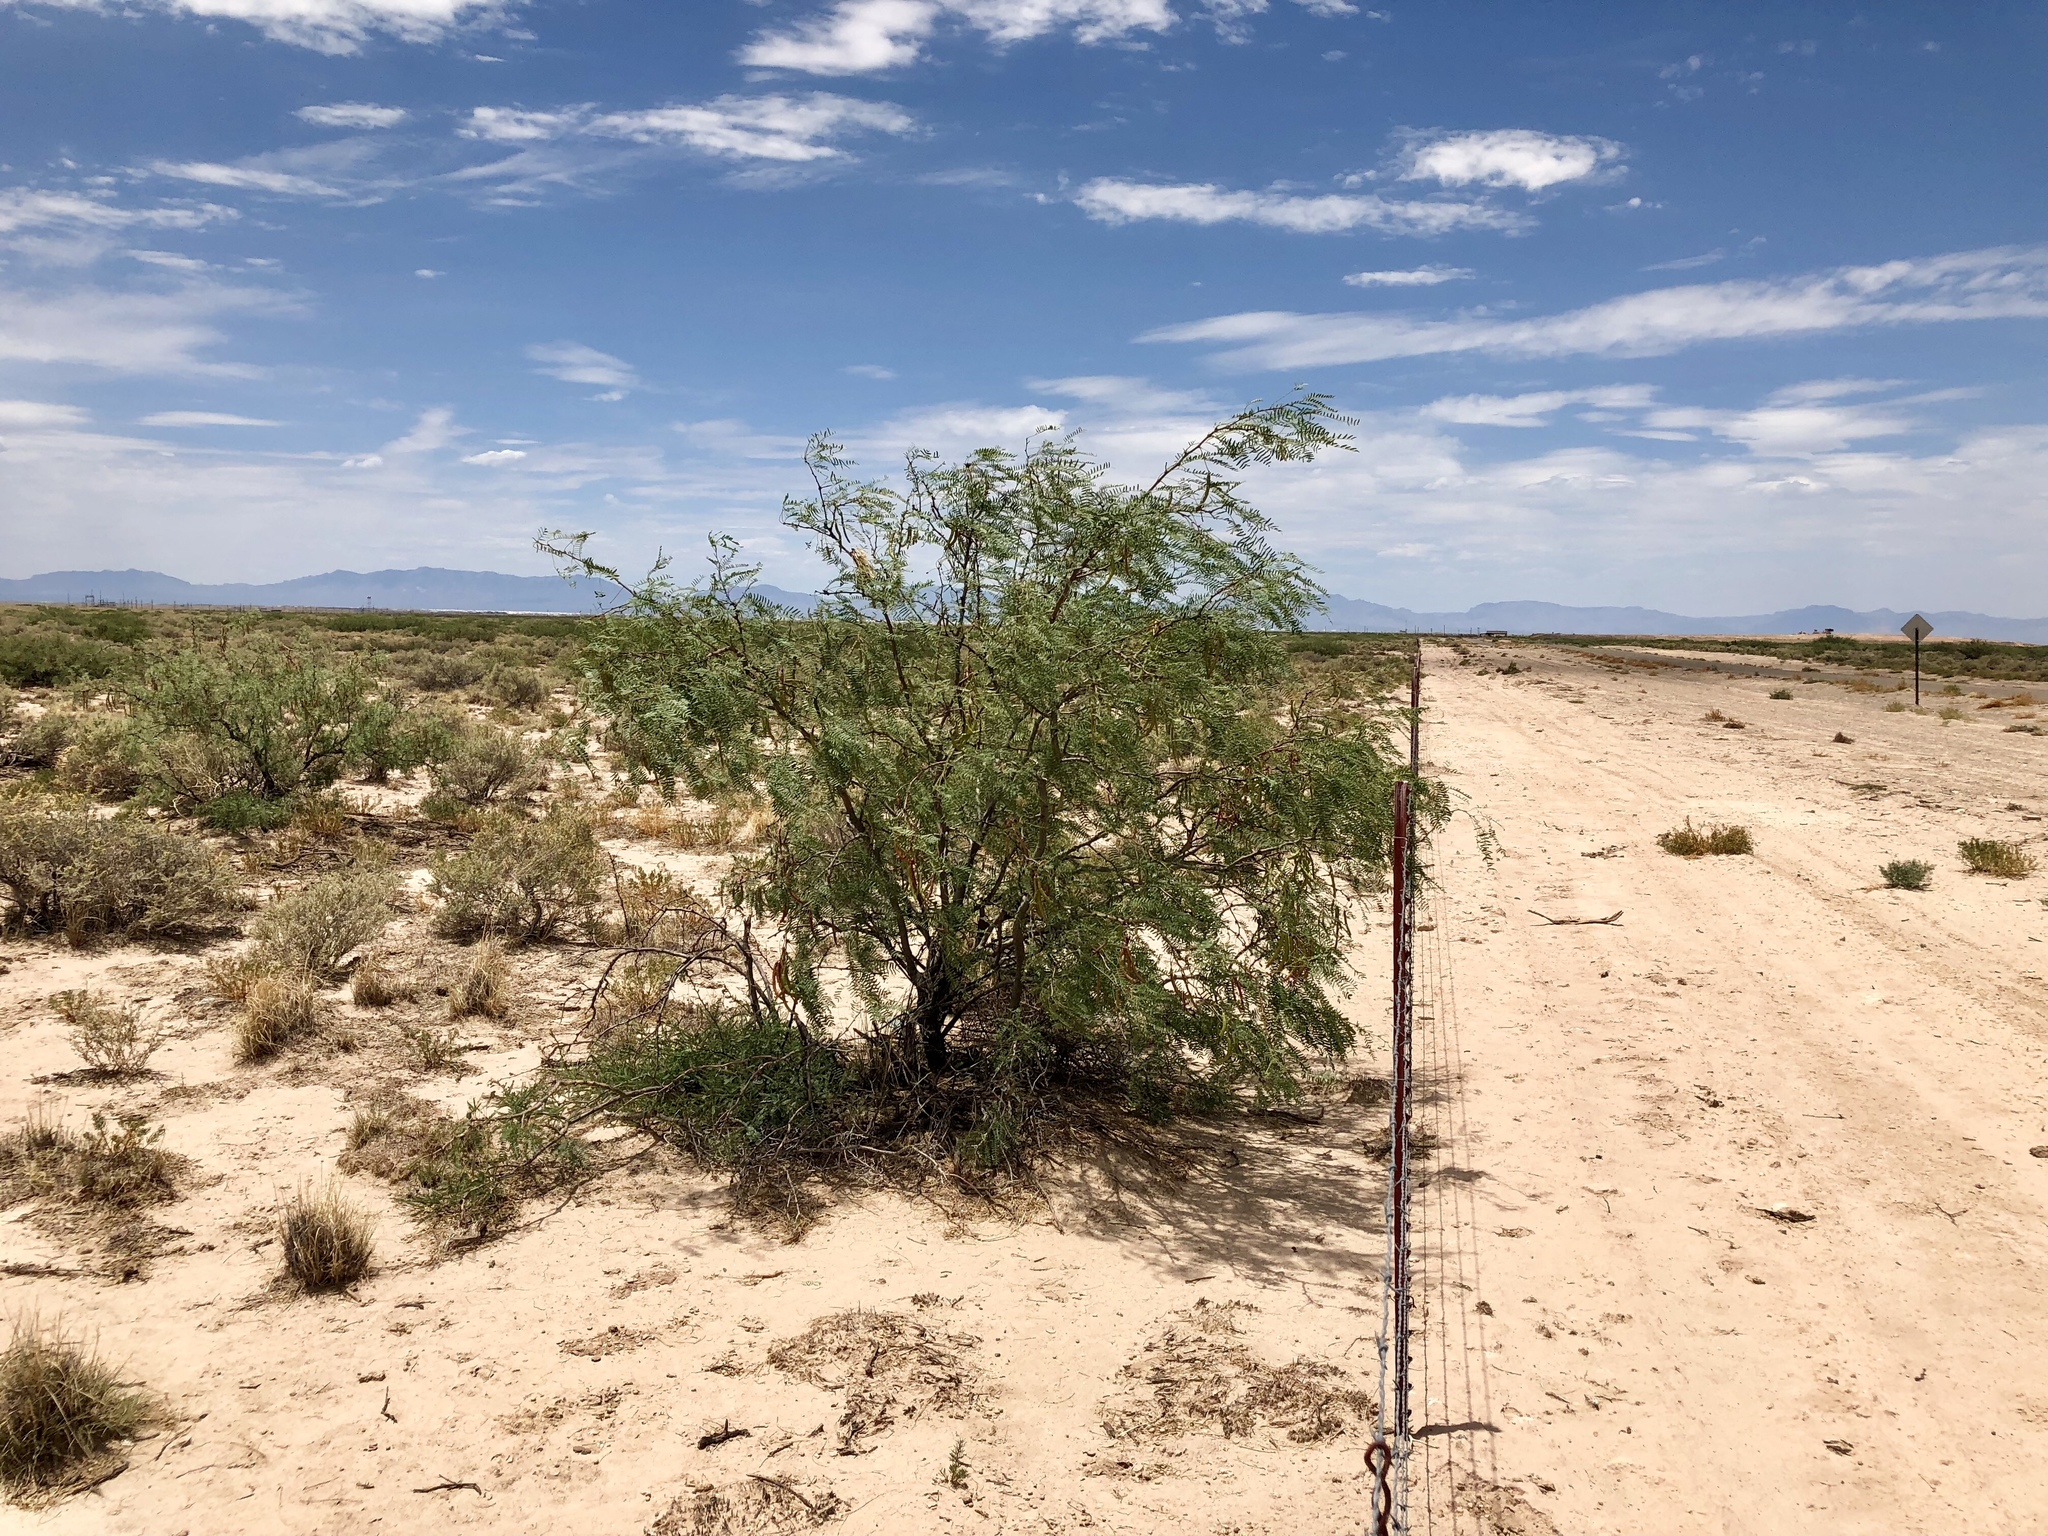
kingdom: Plantae
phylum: Tracheophyta
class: Magnoliopsida
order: Fabales
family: Fabaceae
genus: Prosopis
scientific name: Prosopis glandulosa
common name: Honey mesquite
